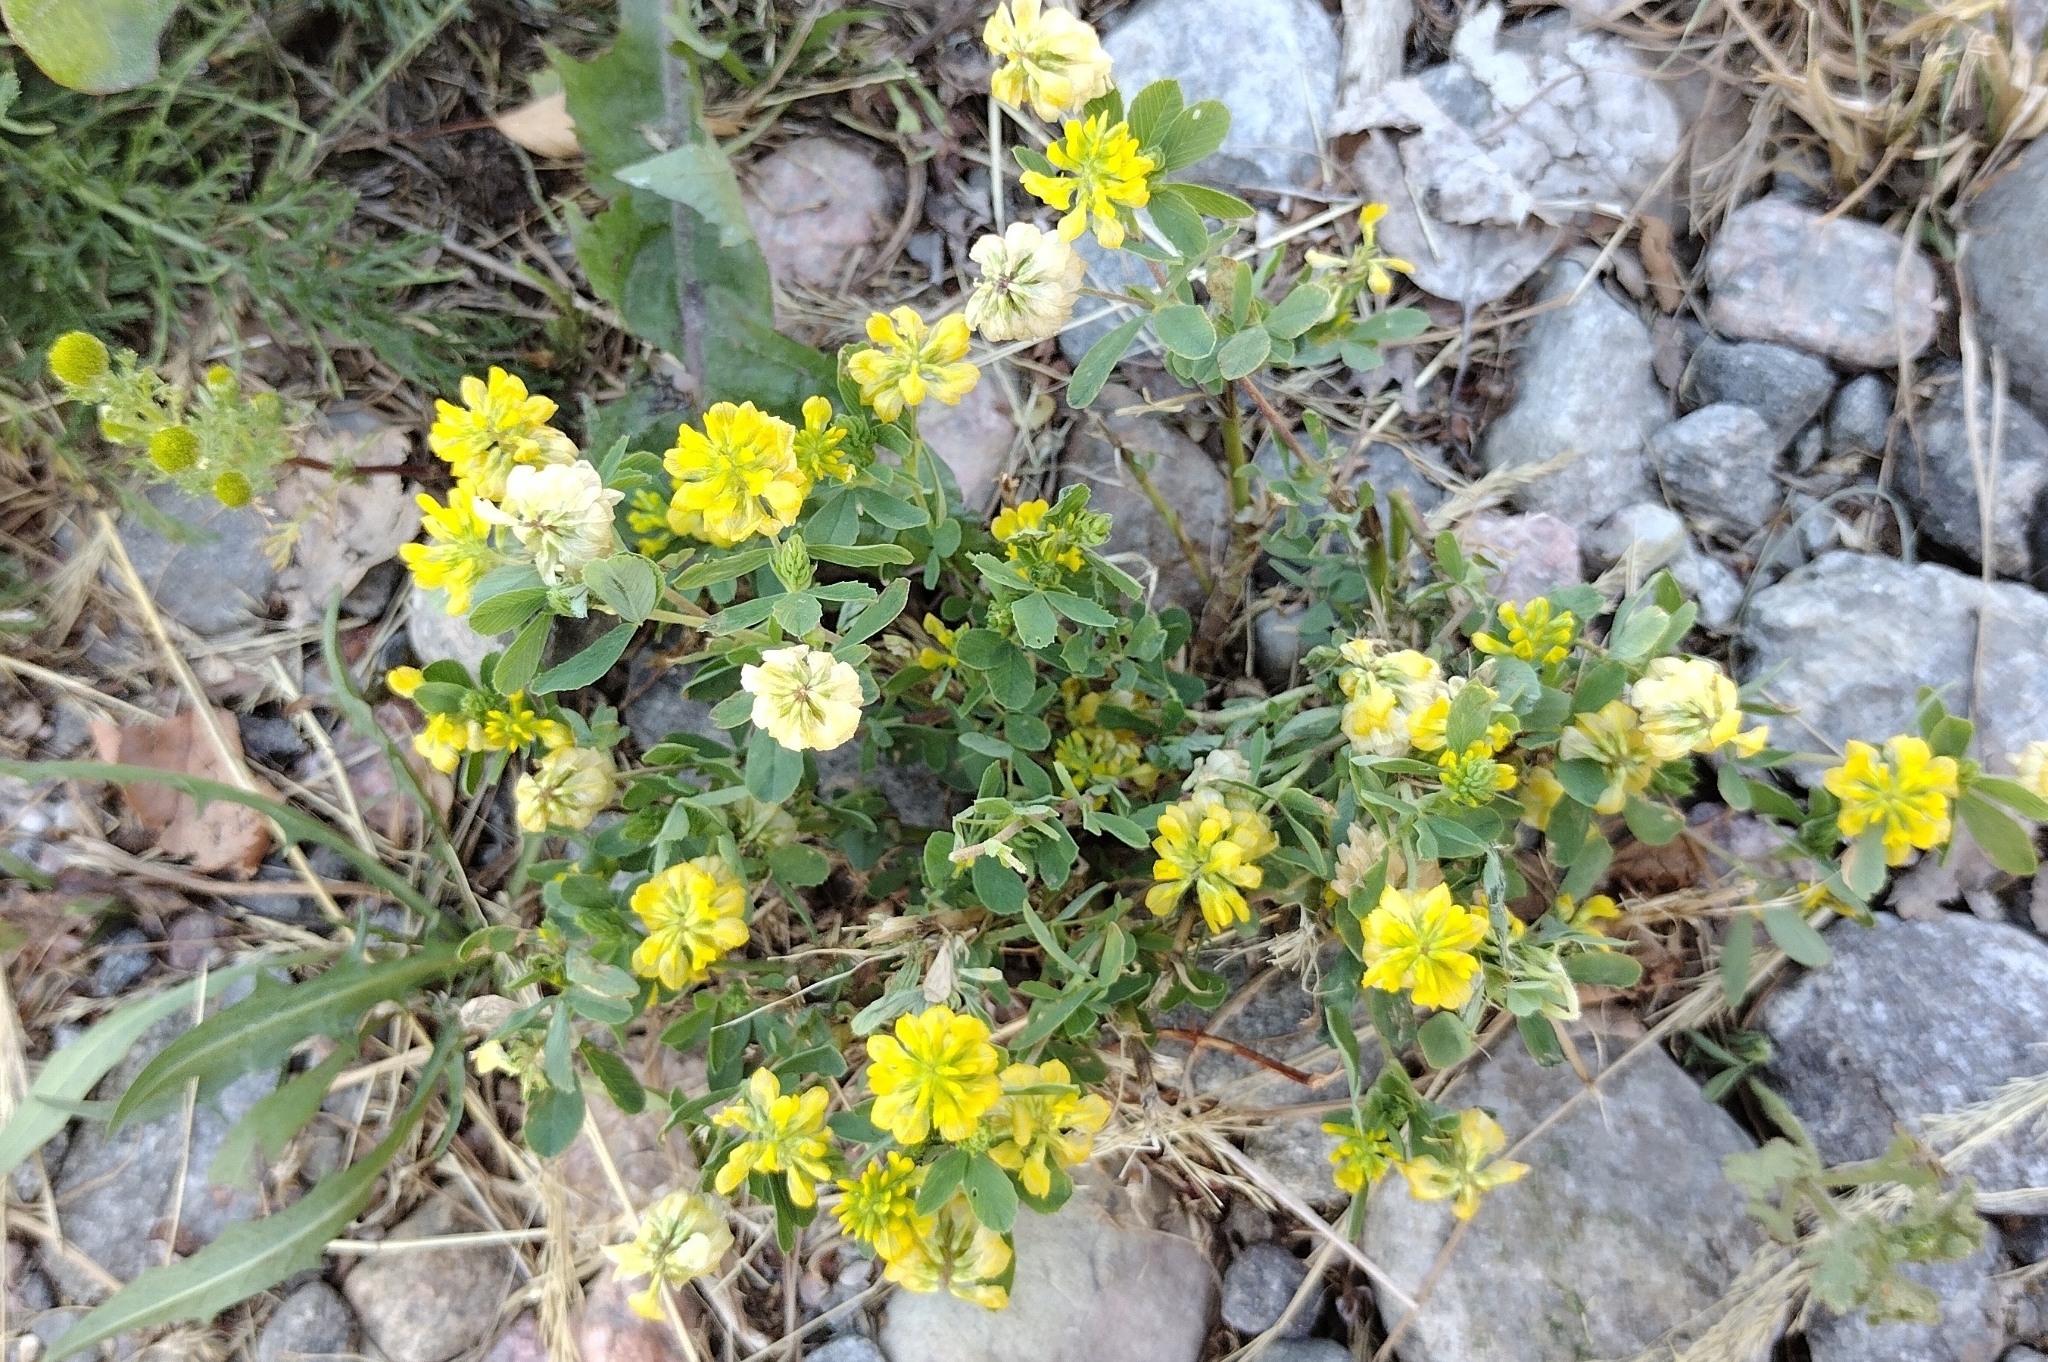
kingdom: Plantae
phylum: Tracheophyta
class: Magnoliopsida
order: Fabales
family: Fabaceae
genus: Trifolium
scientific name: Trifolium aureum
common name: Golden clover
